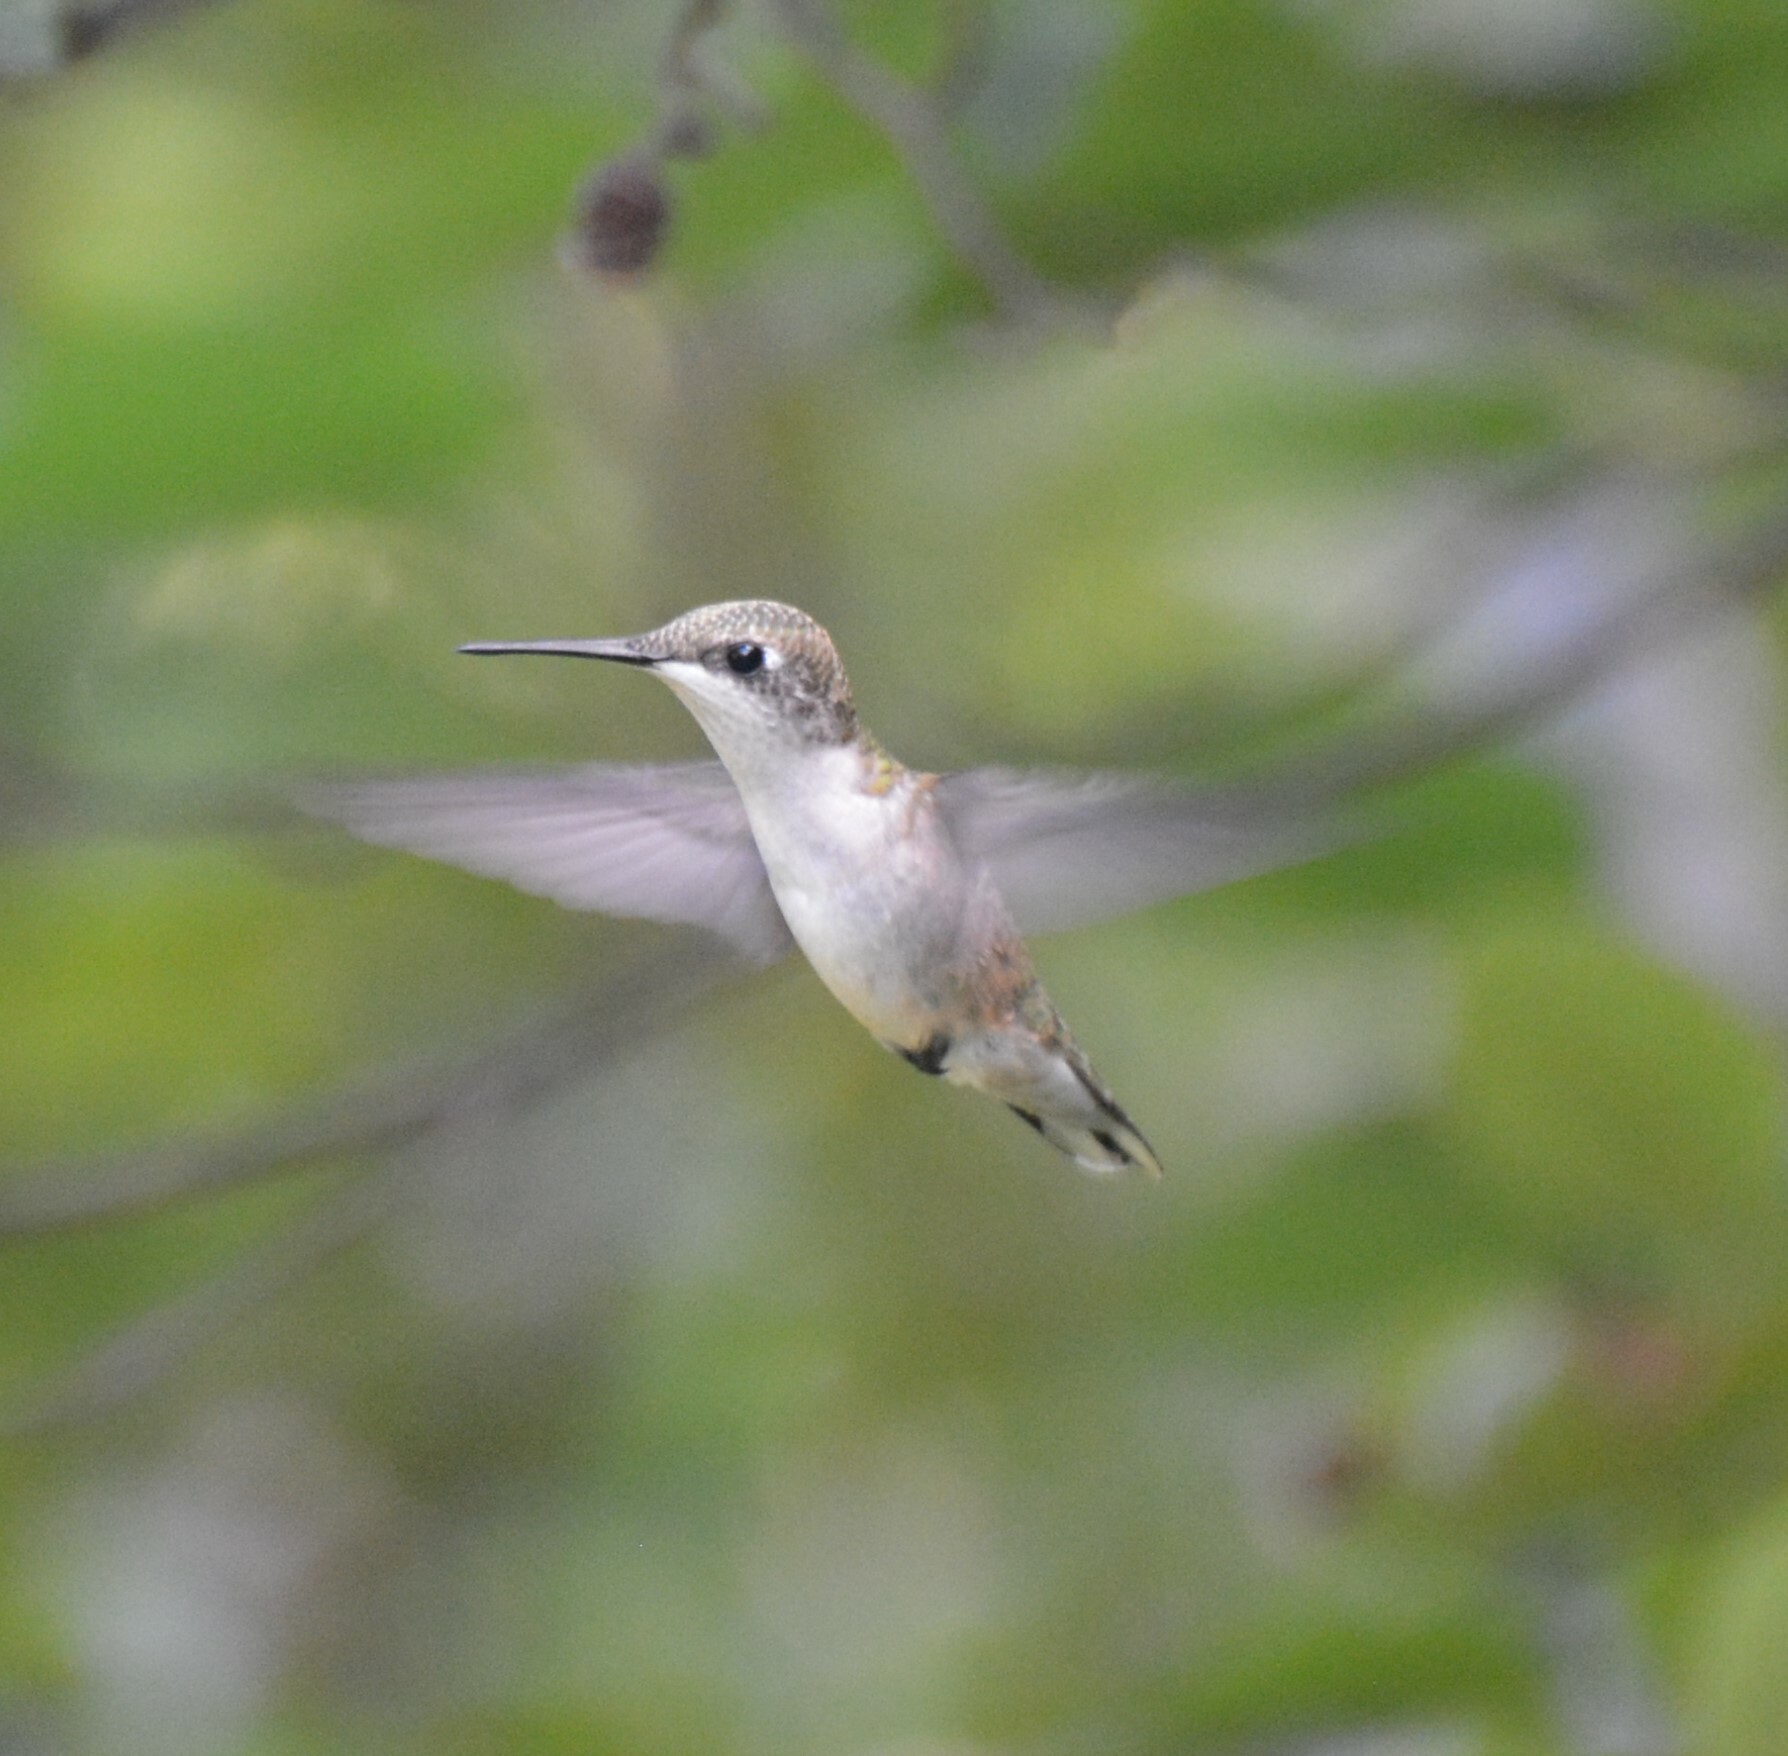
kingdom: Animalia
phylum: Chordata
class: Aves
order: Apodiformes
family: Trochilidae
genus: Archilochus
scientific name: Archilochus colubris
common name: Ruby-throated hummingbird
